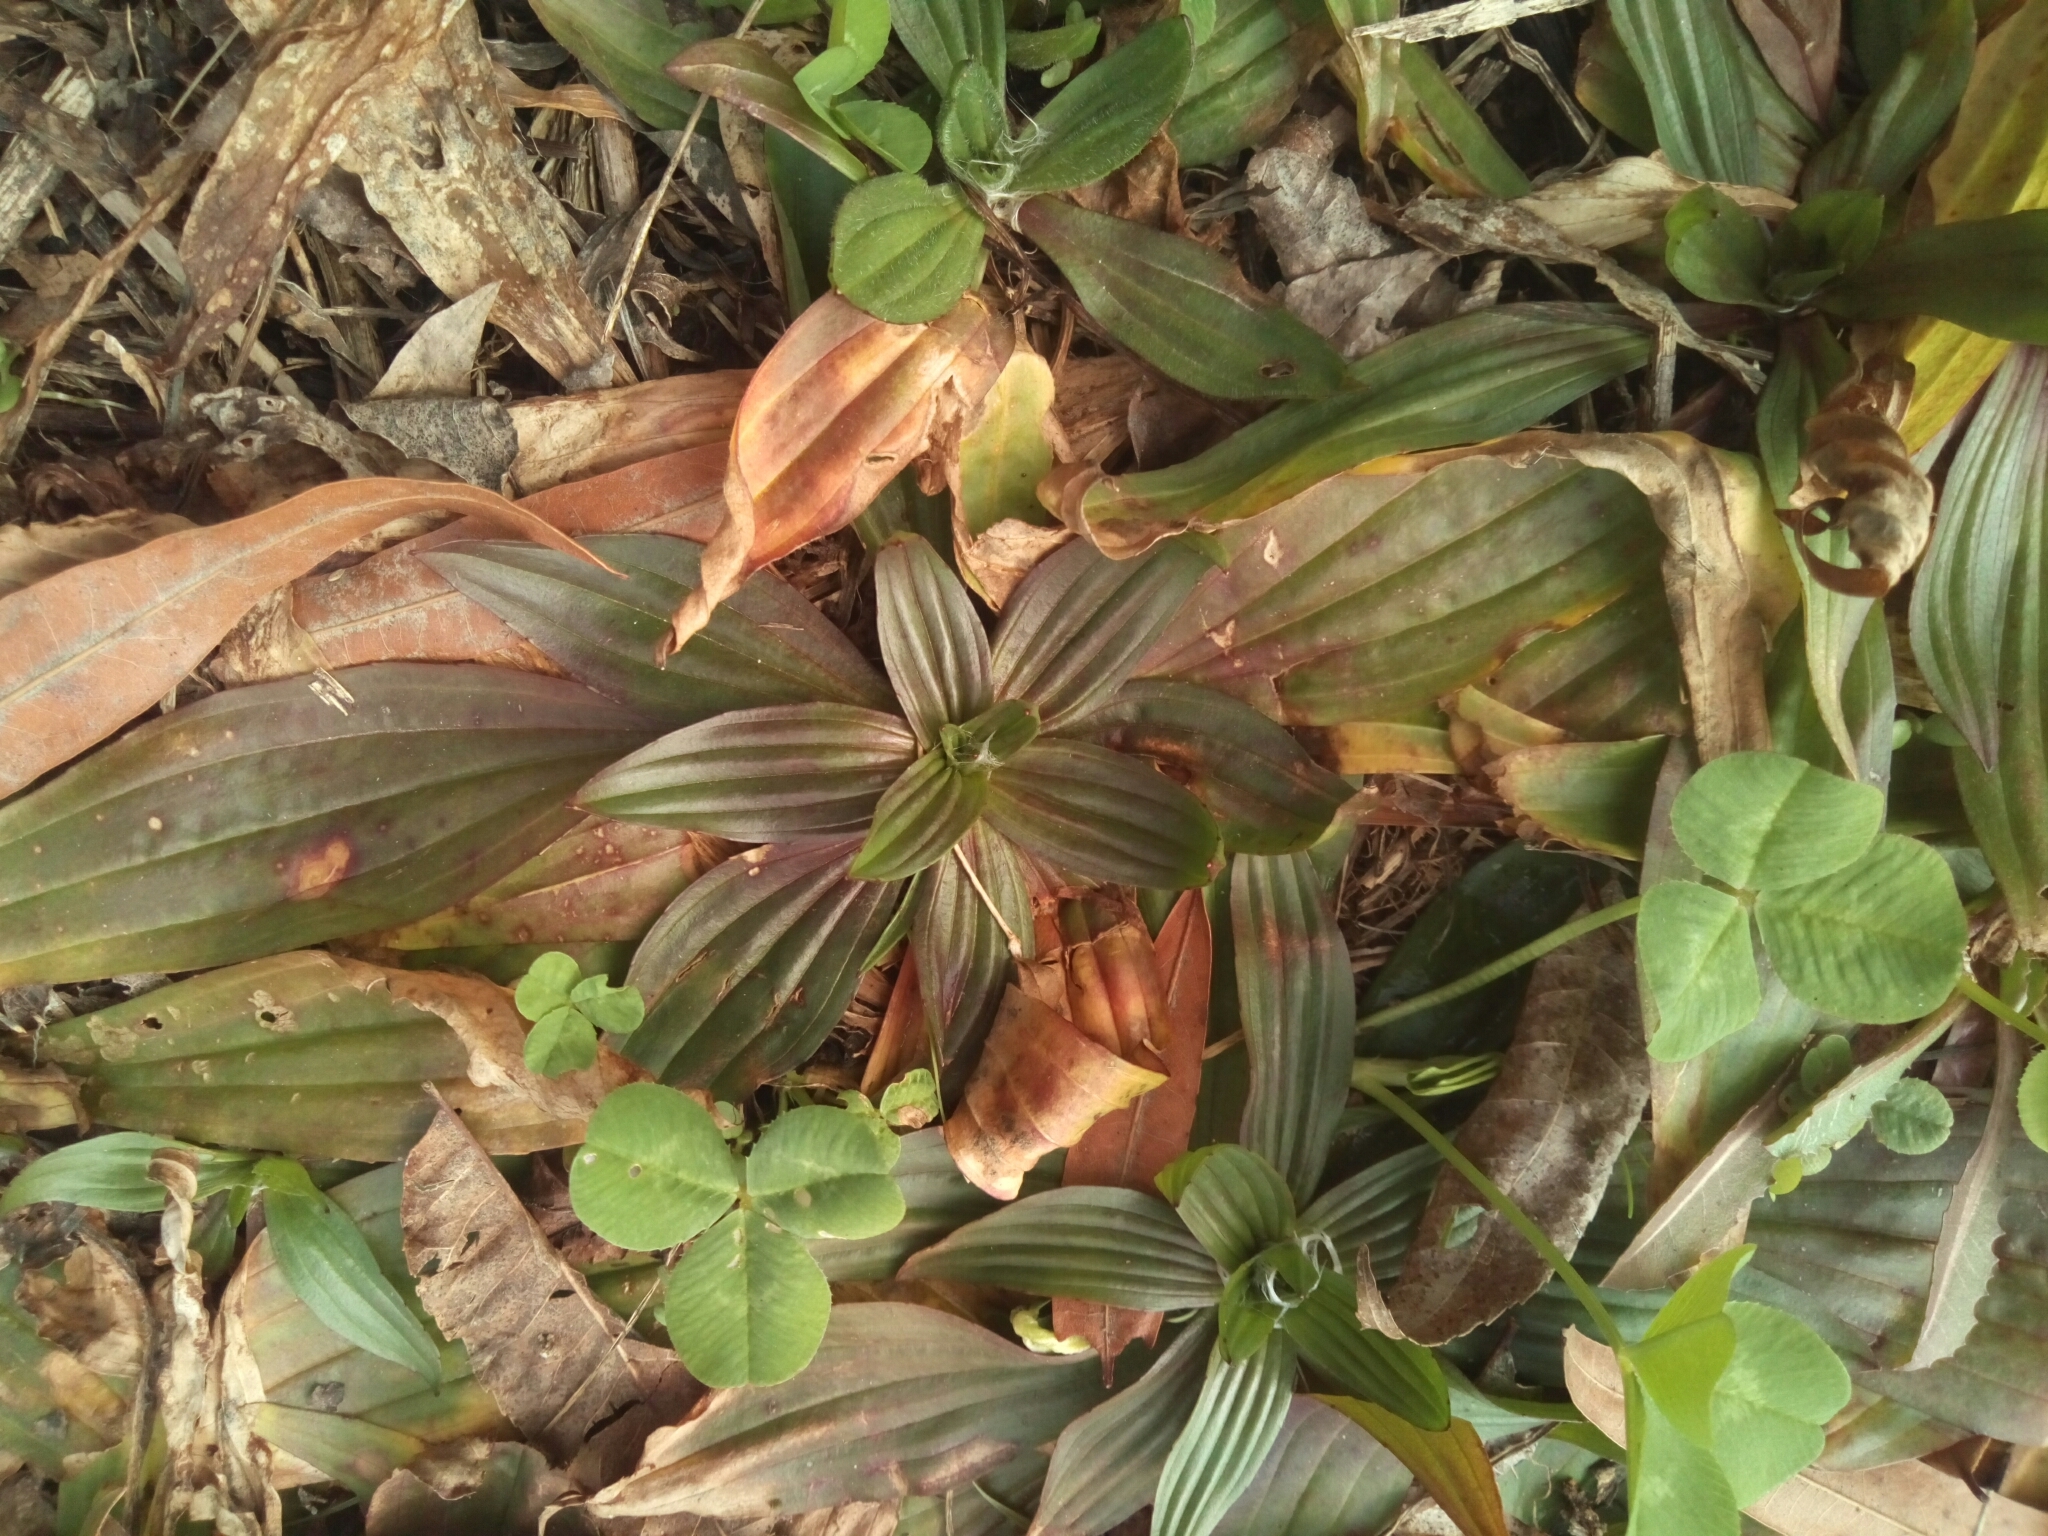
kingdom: Plantae
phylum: Tracheophyta
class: Magnoliopsida
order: Lamiales
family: Plantaginaceae
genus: Plantago
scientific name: Plantago lanceolata
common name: Ribwort plantain
